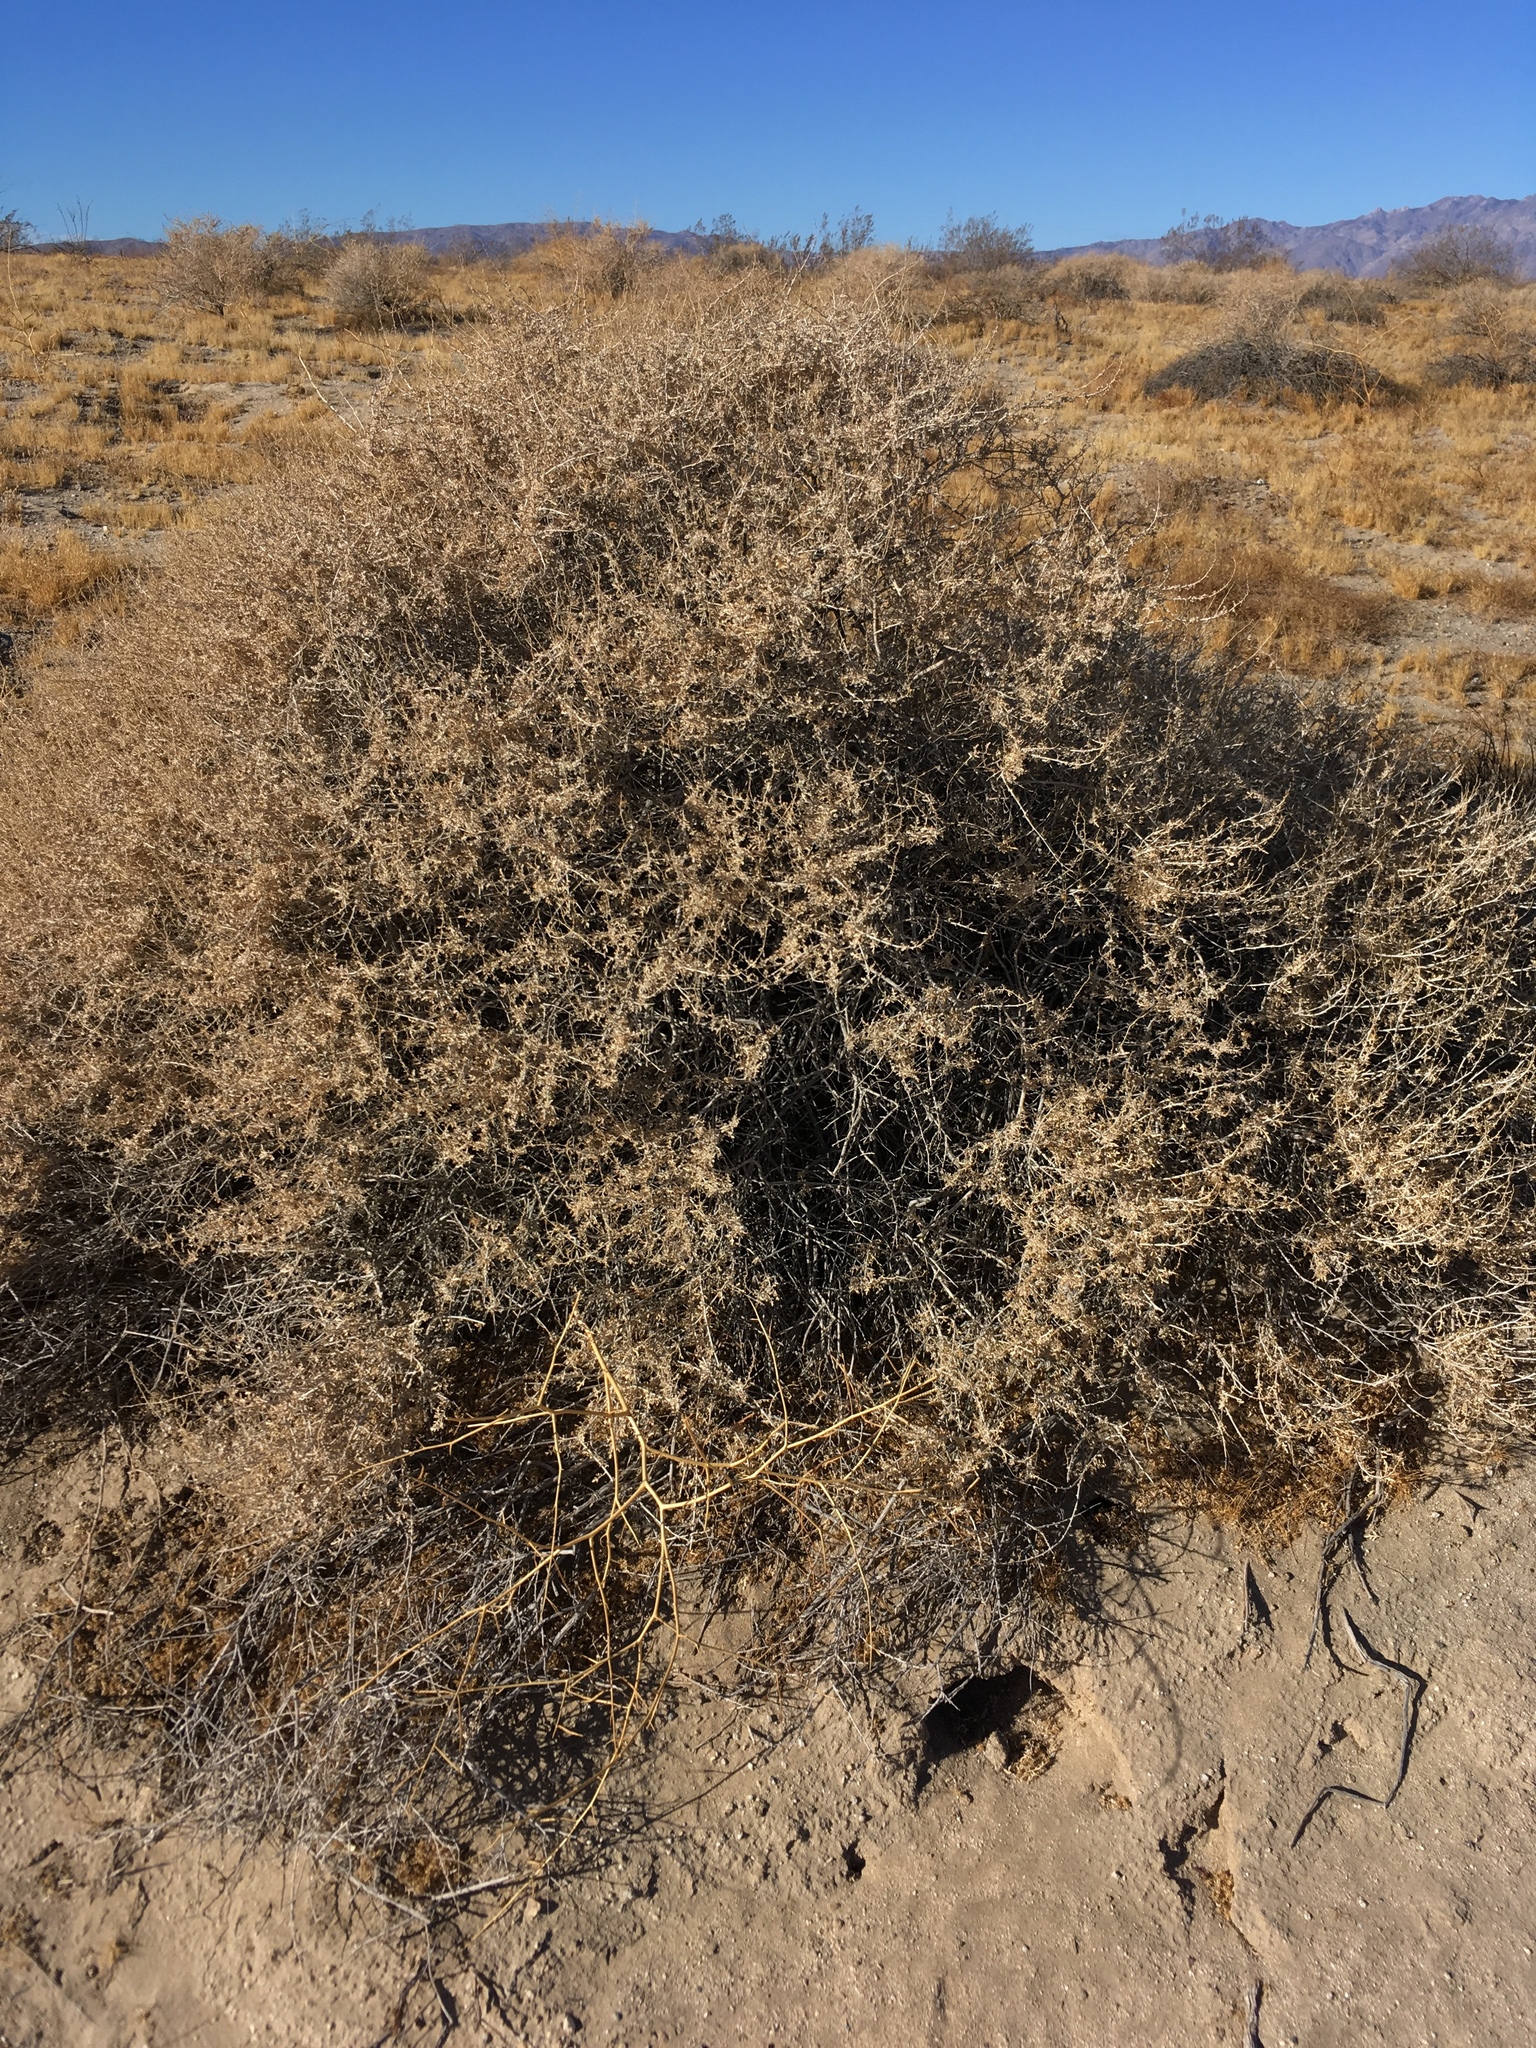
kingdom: Plantae
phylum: Tracheophyta
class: Magnoliopsida
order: Asterales
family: Asteraceae
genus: Ambrosia
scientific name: Ambrosia dumosa
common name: Bur-sage
